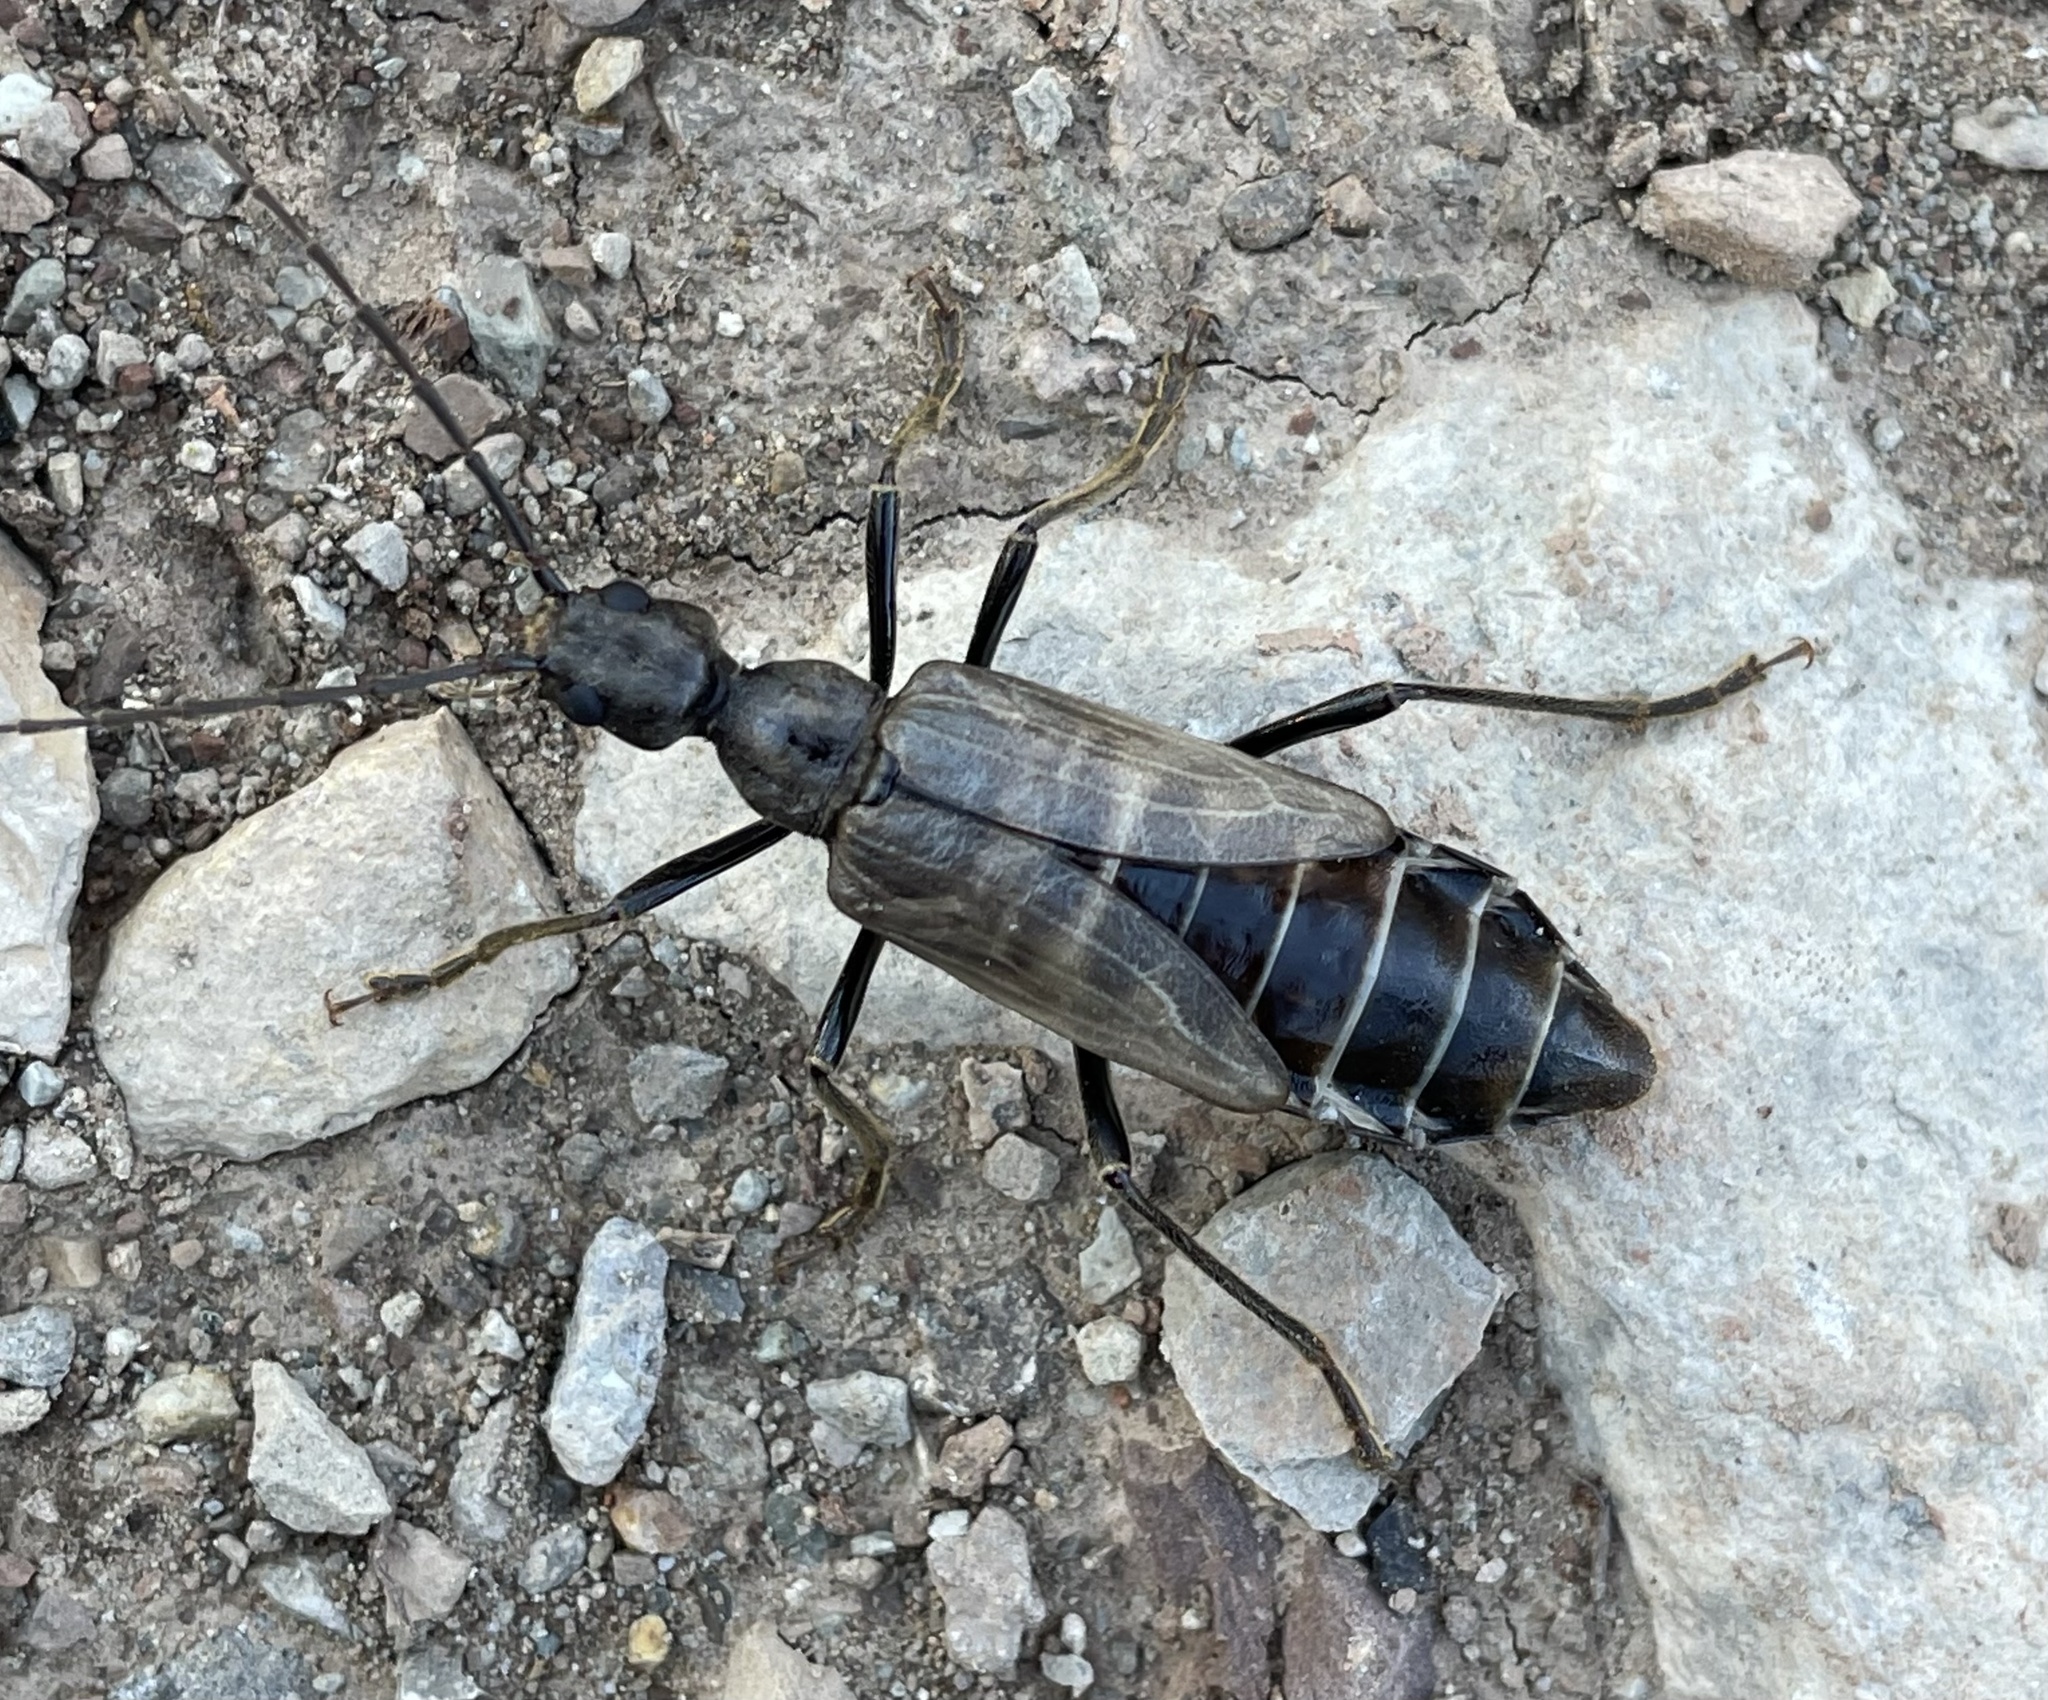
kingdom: Animalia
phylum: Arthropoda
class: Insecta
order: Coleoptera
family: Cerambycidae
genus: Vesperus
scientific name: Vesperus xatarti
